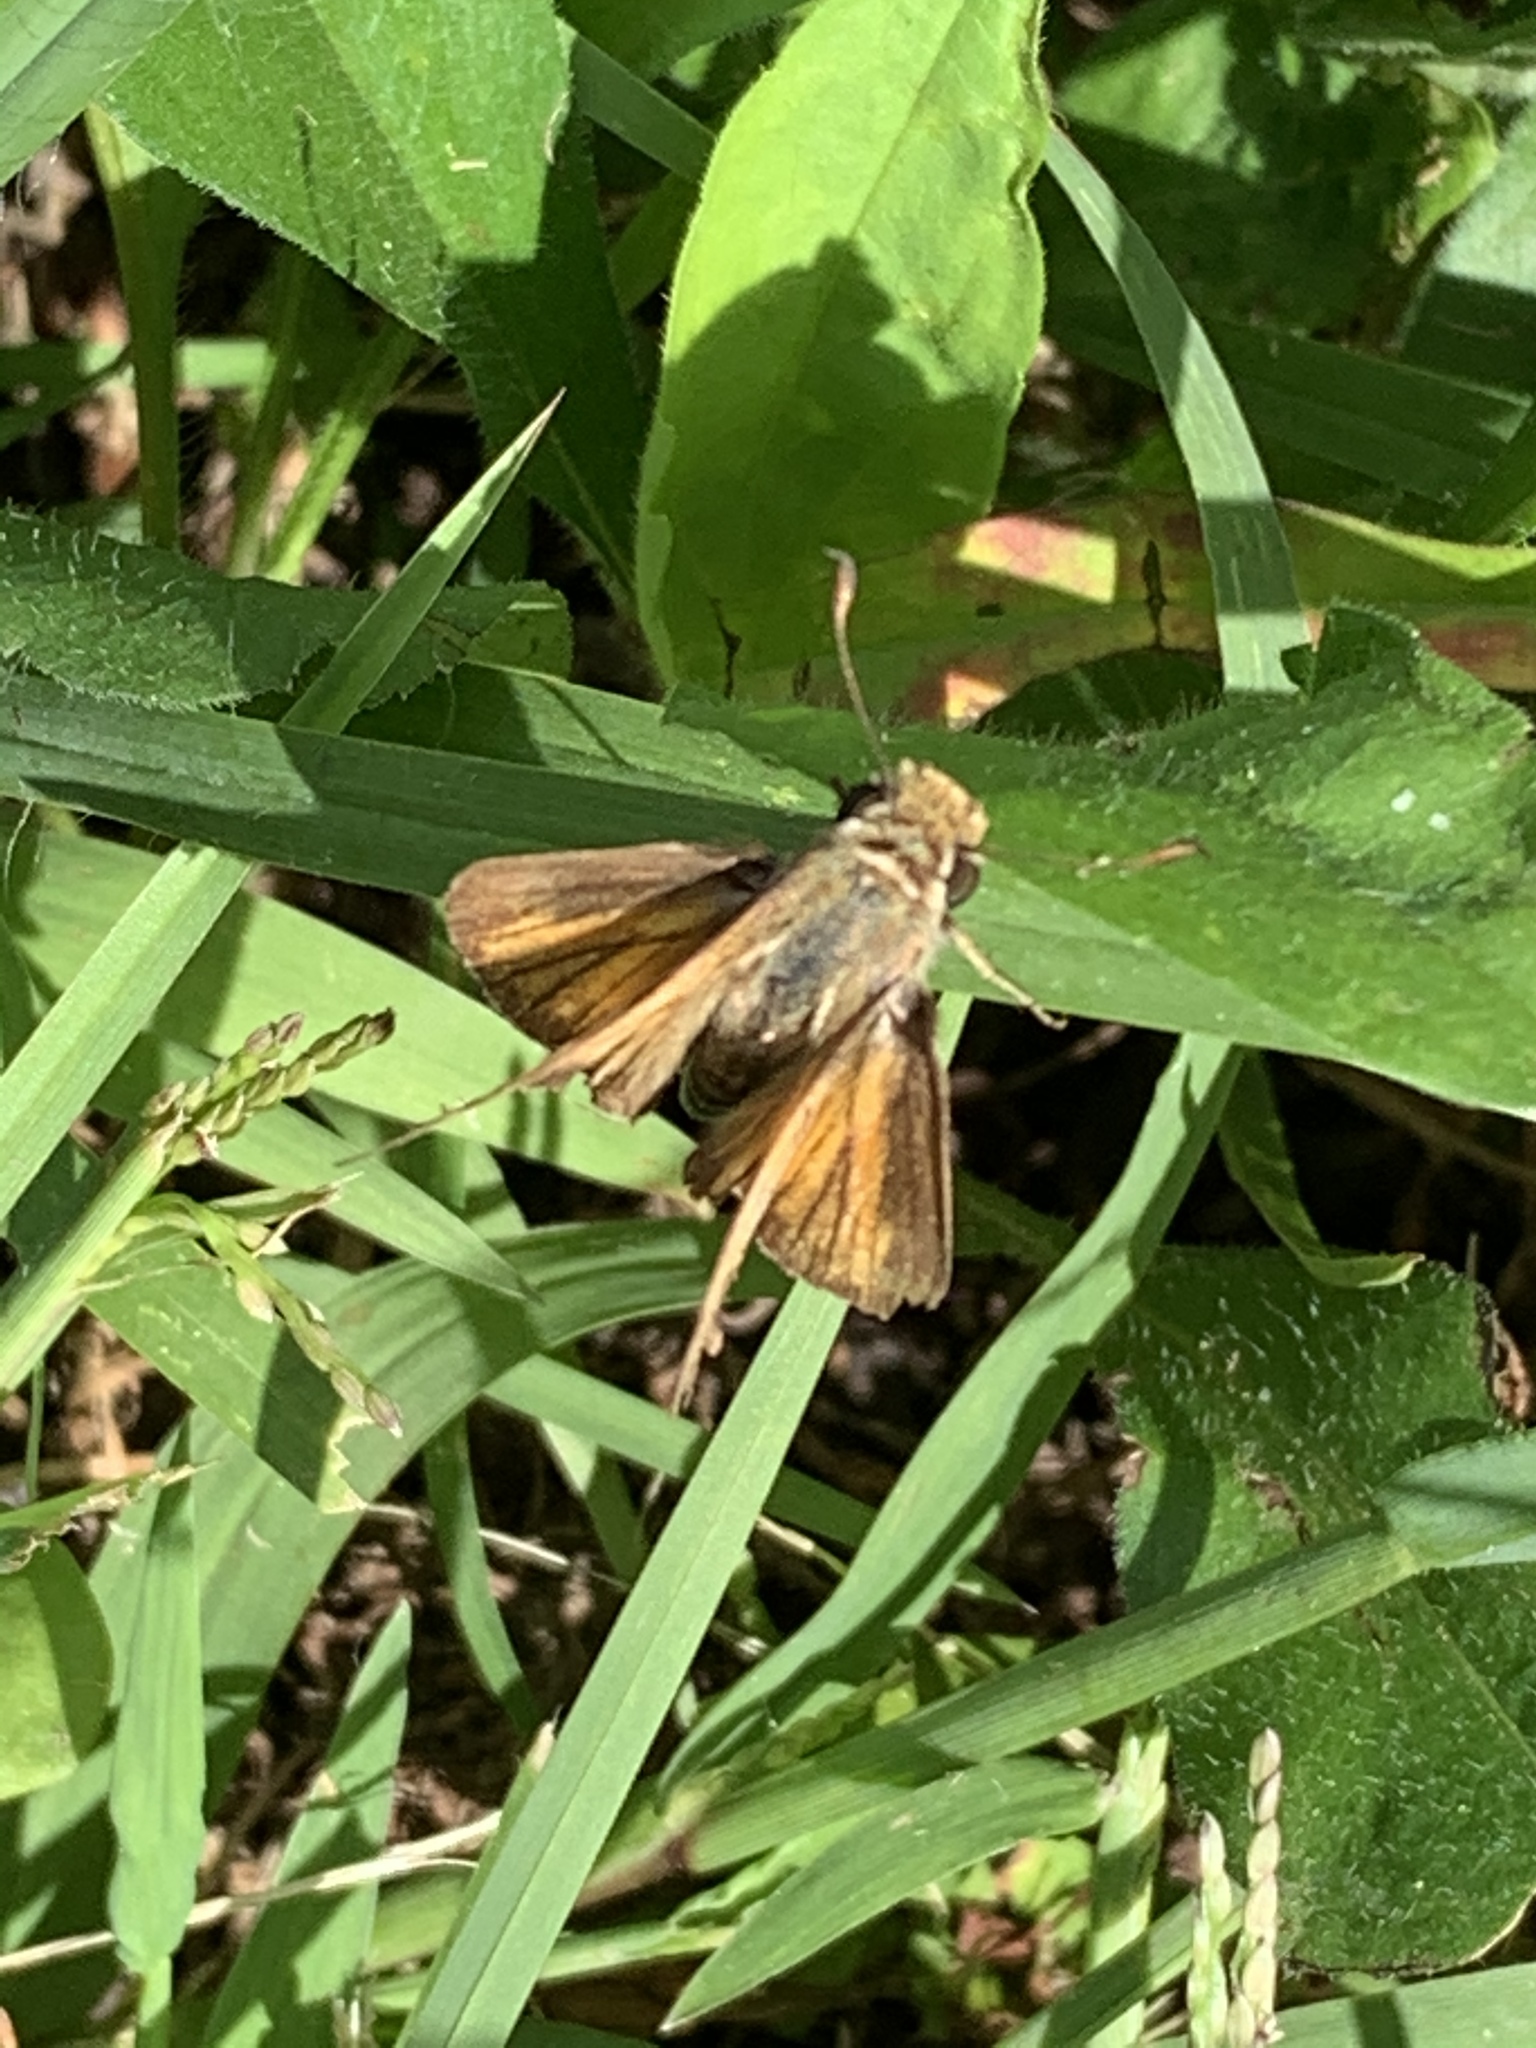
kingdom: Animalia
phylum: Arthropoda
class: Insecta
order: Lepidoptera
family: Hesperiidae
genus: Atalopedes
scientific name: Atalopedes
